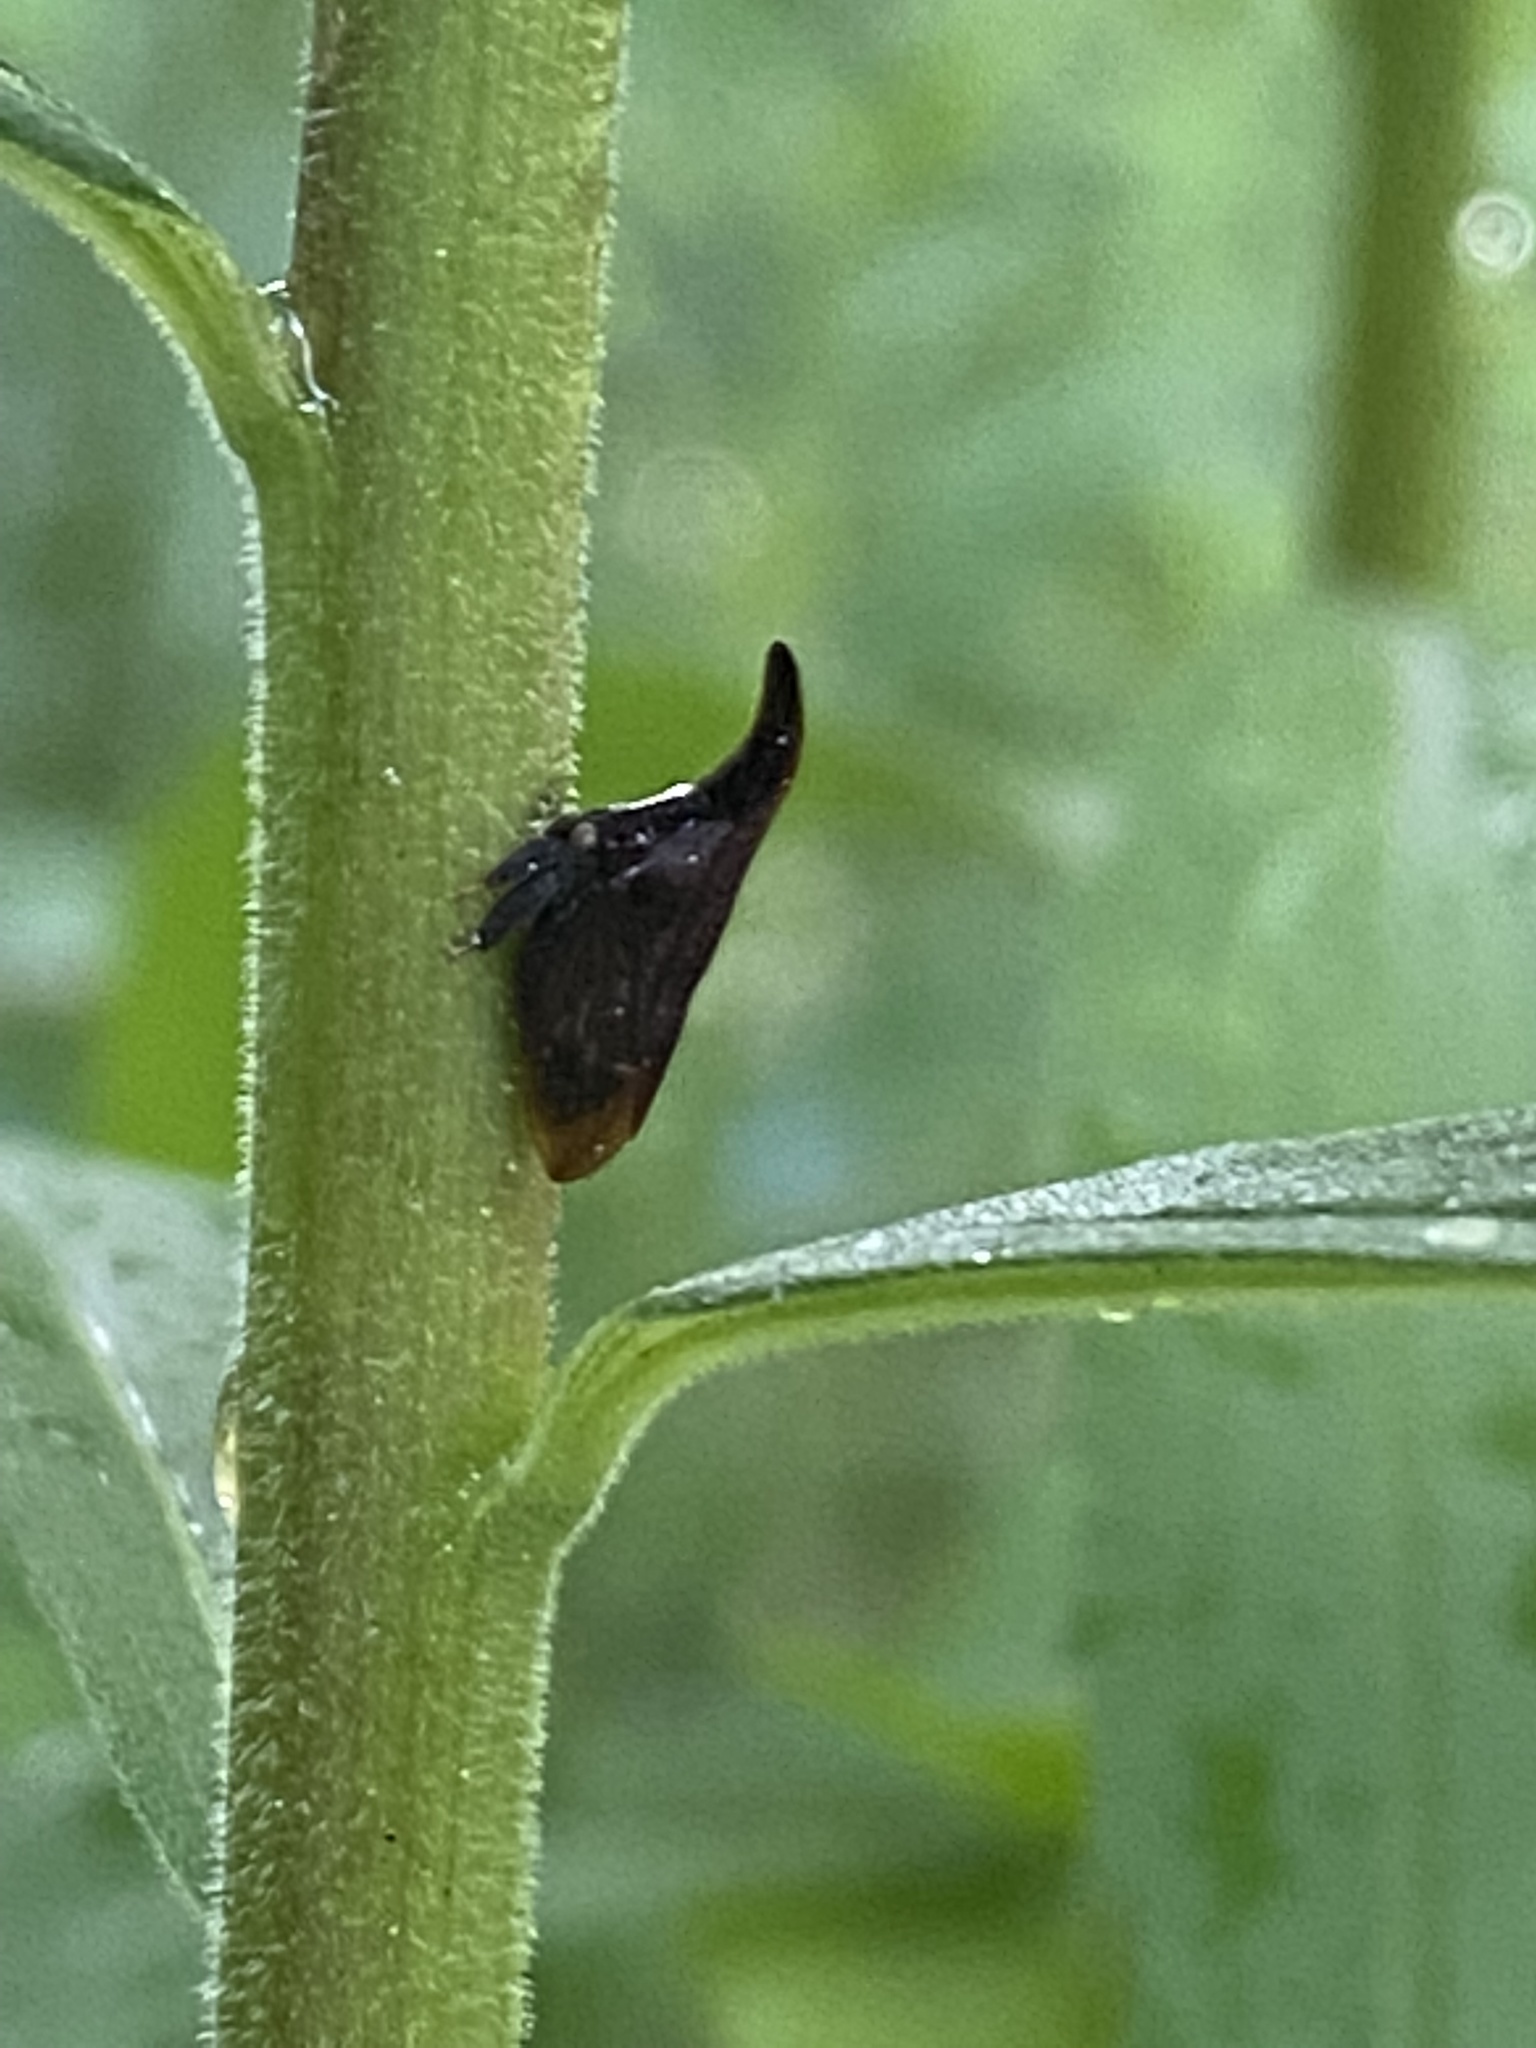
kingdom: Animalia
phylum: Arthropoda
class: Insecta
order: Hemiptera
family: Membracidae
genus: Enchenopa
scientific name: Enchenopa latipes
